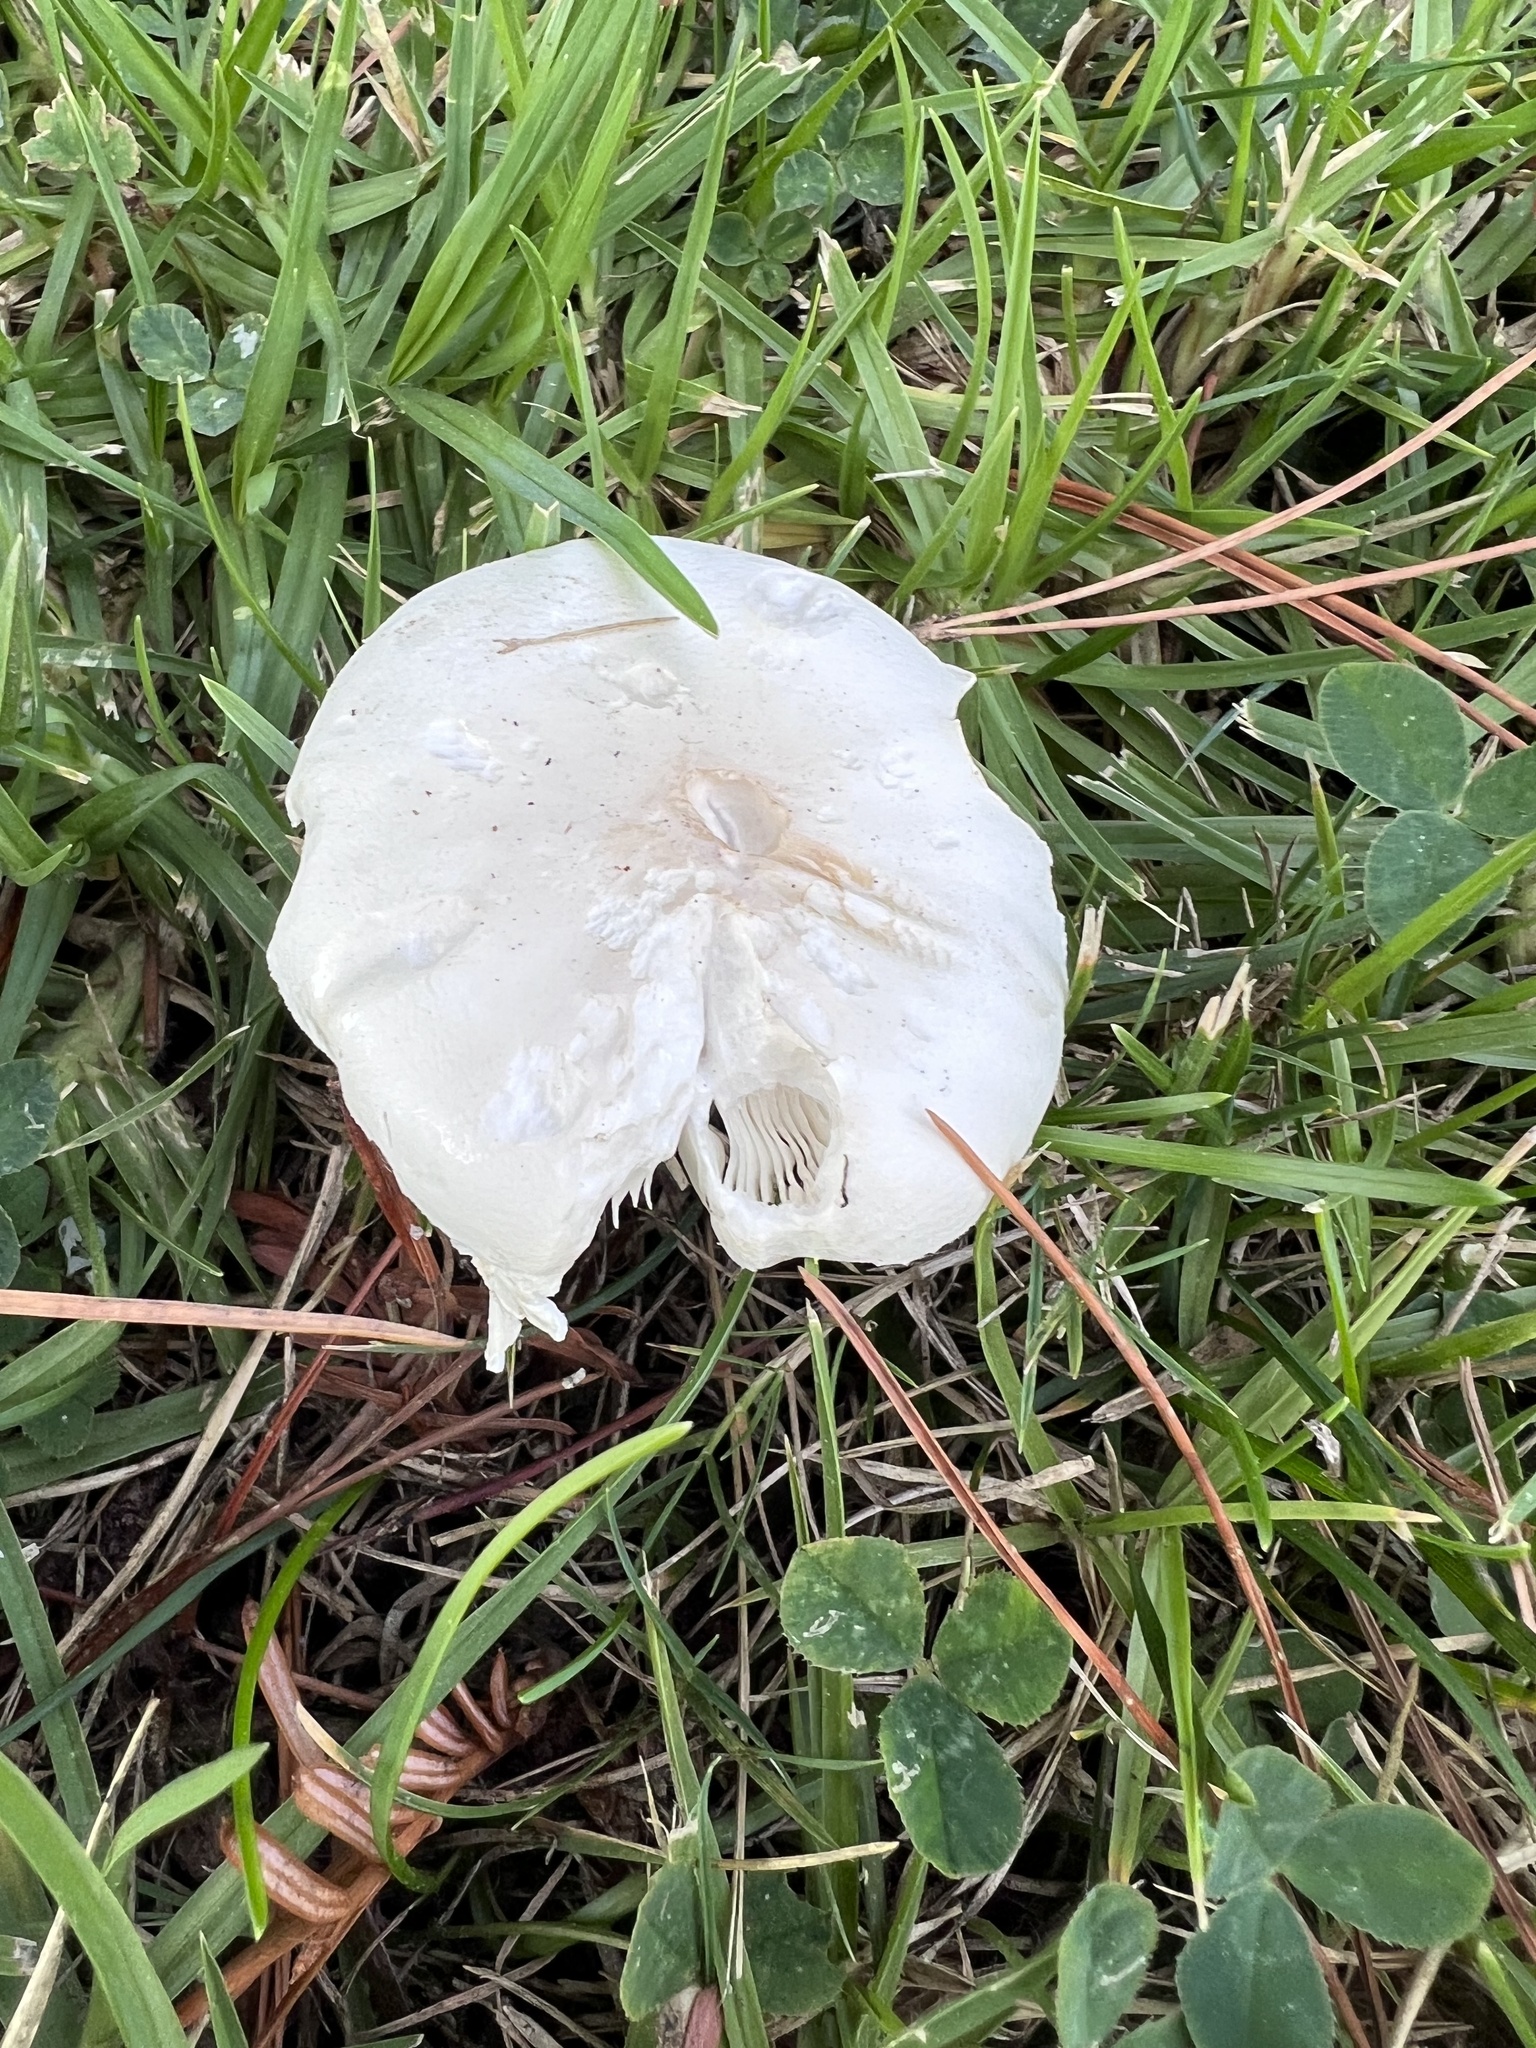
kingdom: Fungi
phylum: Basidiomycota
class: Agaricomycetes
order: Agaricales
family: Agaricaceae
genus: Leucoagaricus
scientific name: Leucoagaricus leucothites
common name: White dapperling
